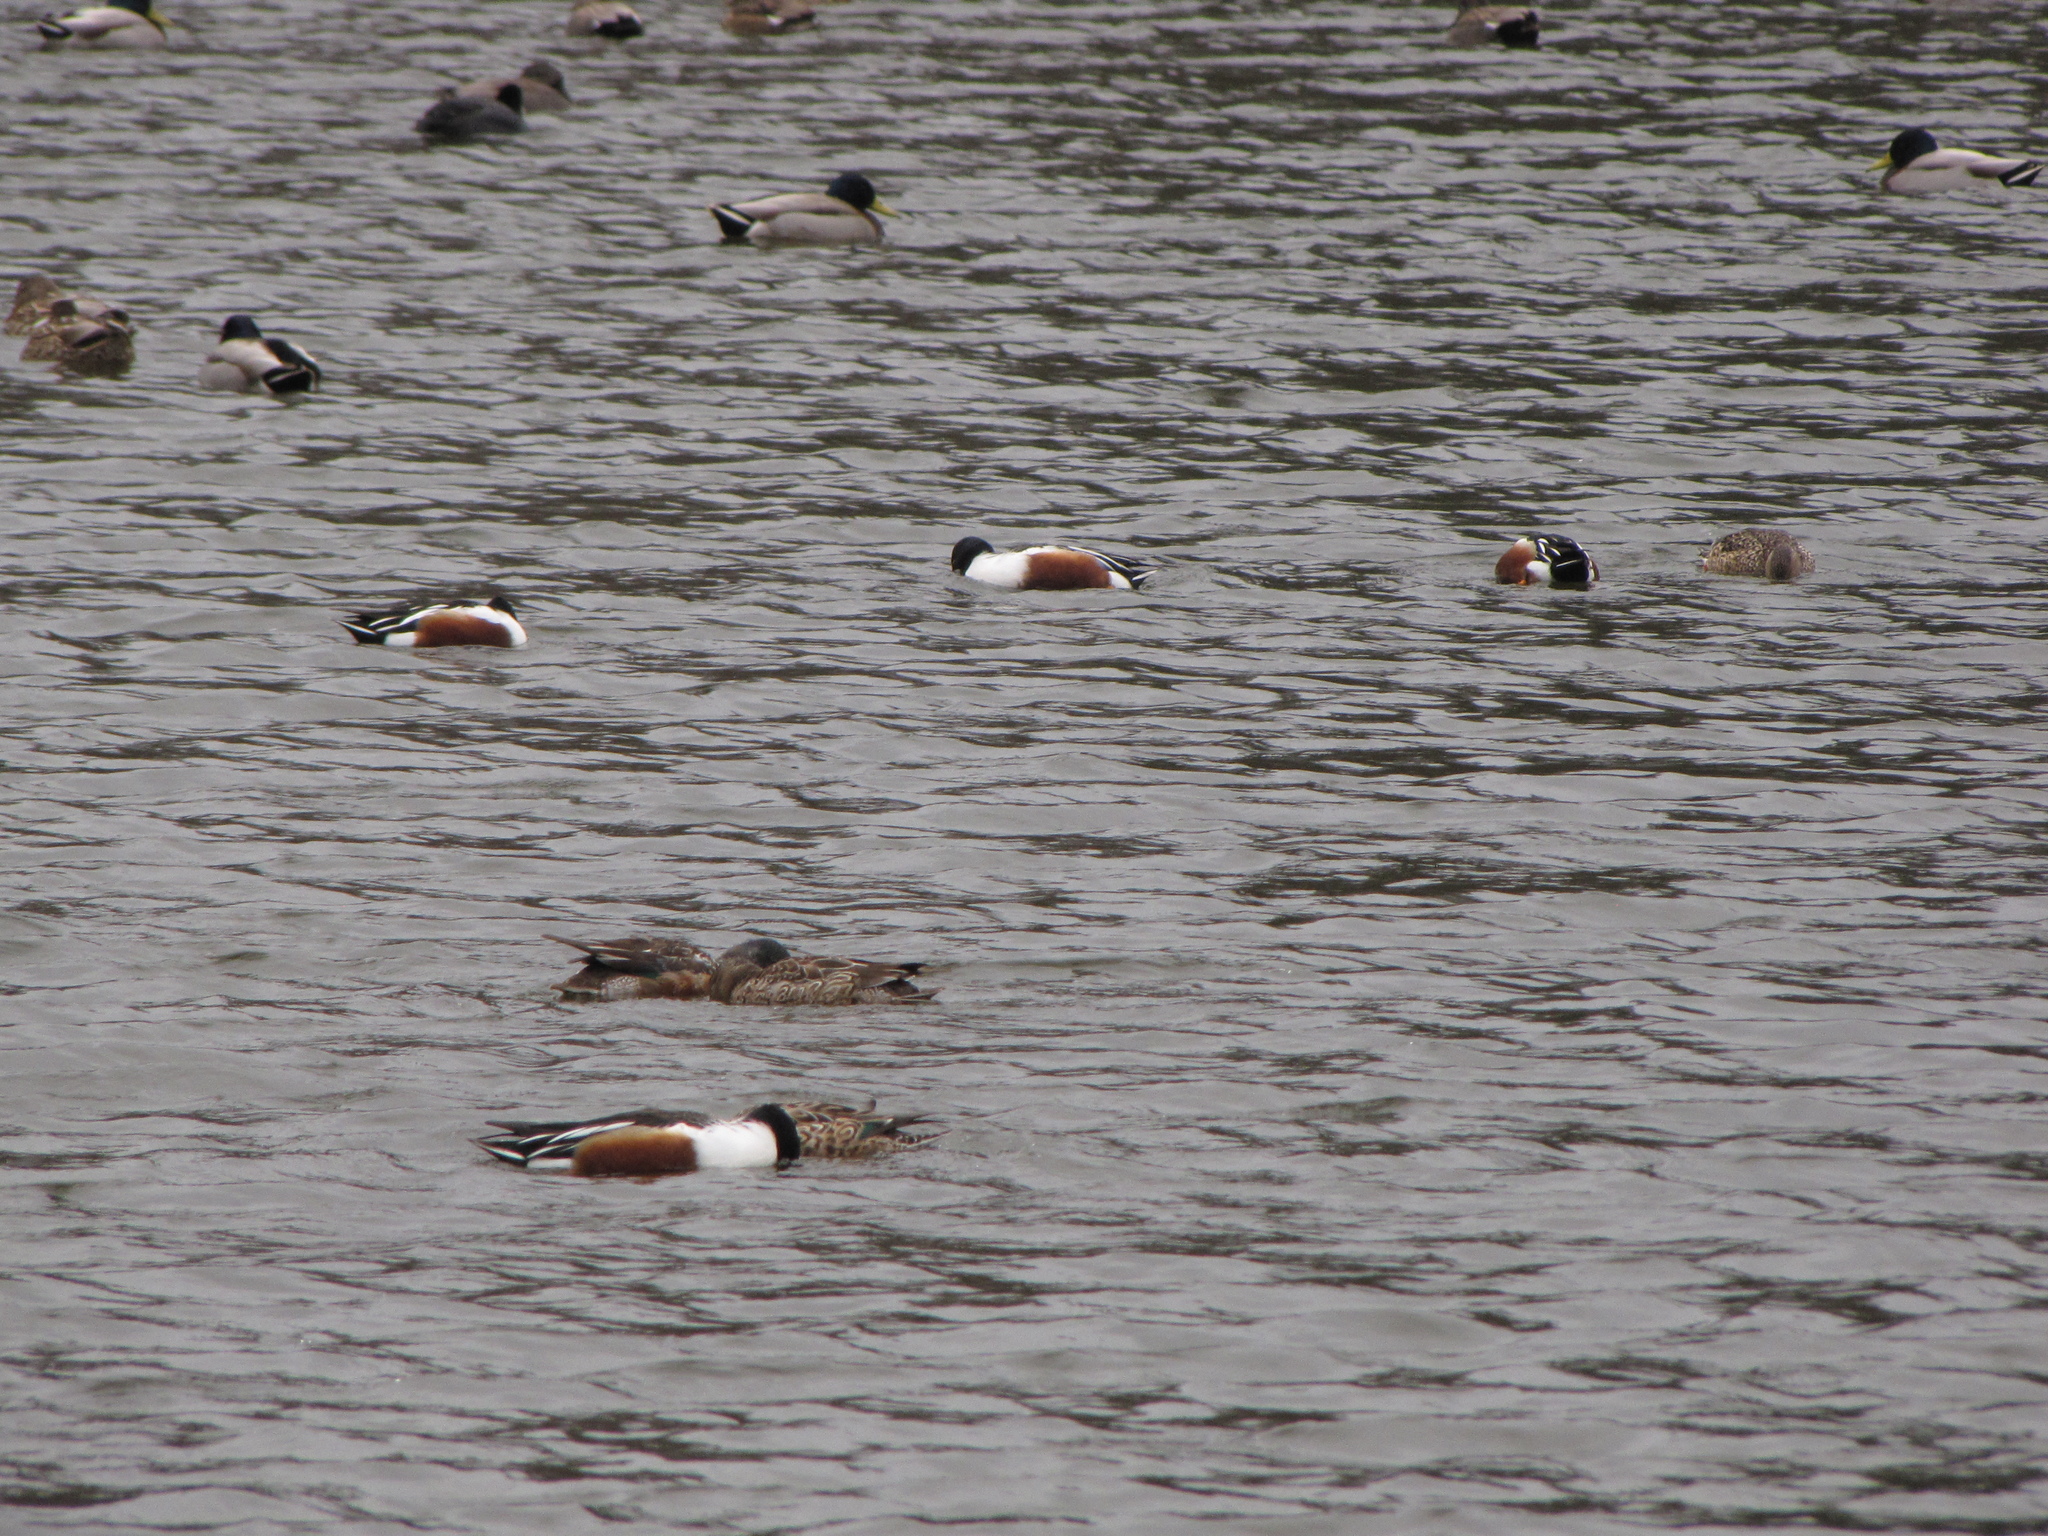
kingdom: Animalia
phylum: Chordata
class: Aves
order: Anseriformes
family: Anatidae
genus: Spatula
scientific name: Spatula clypeata
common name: Northern shoveler
